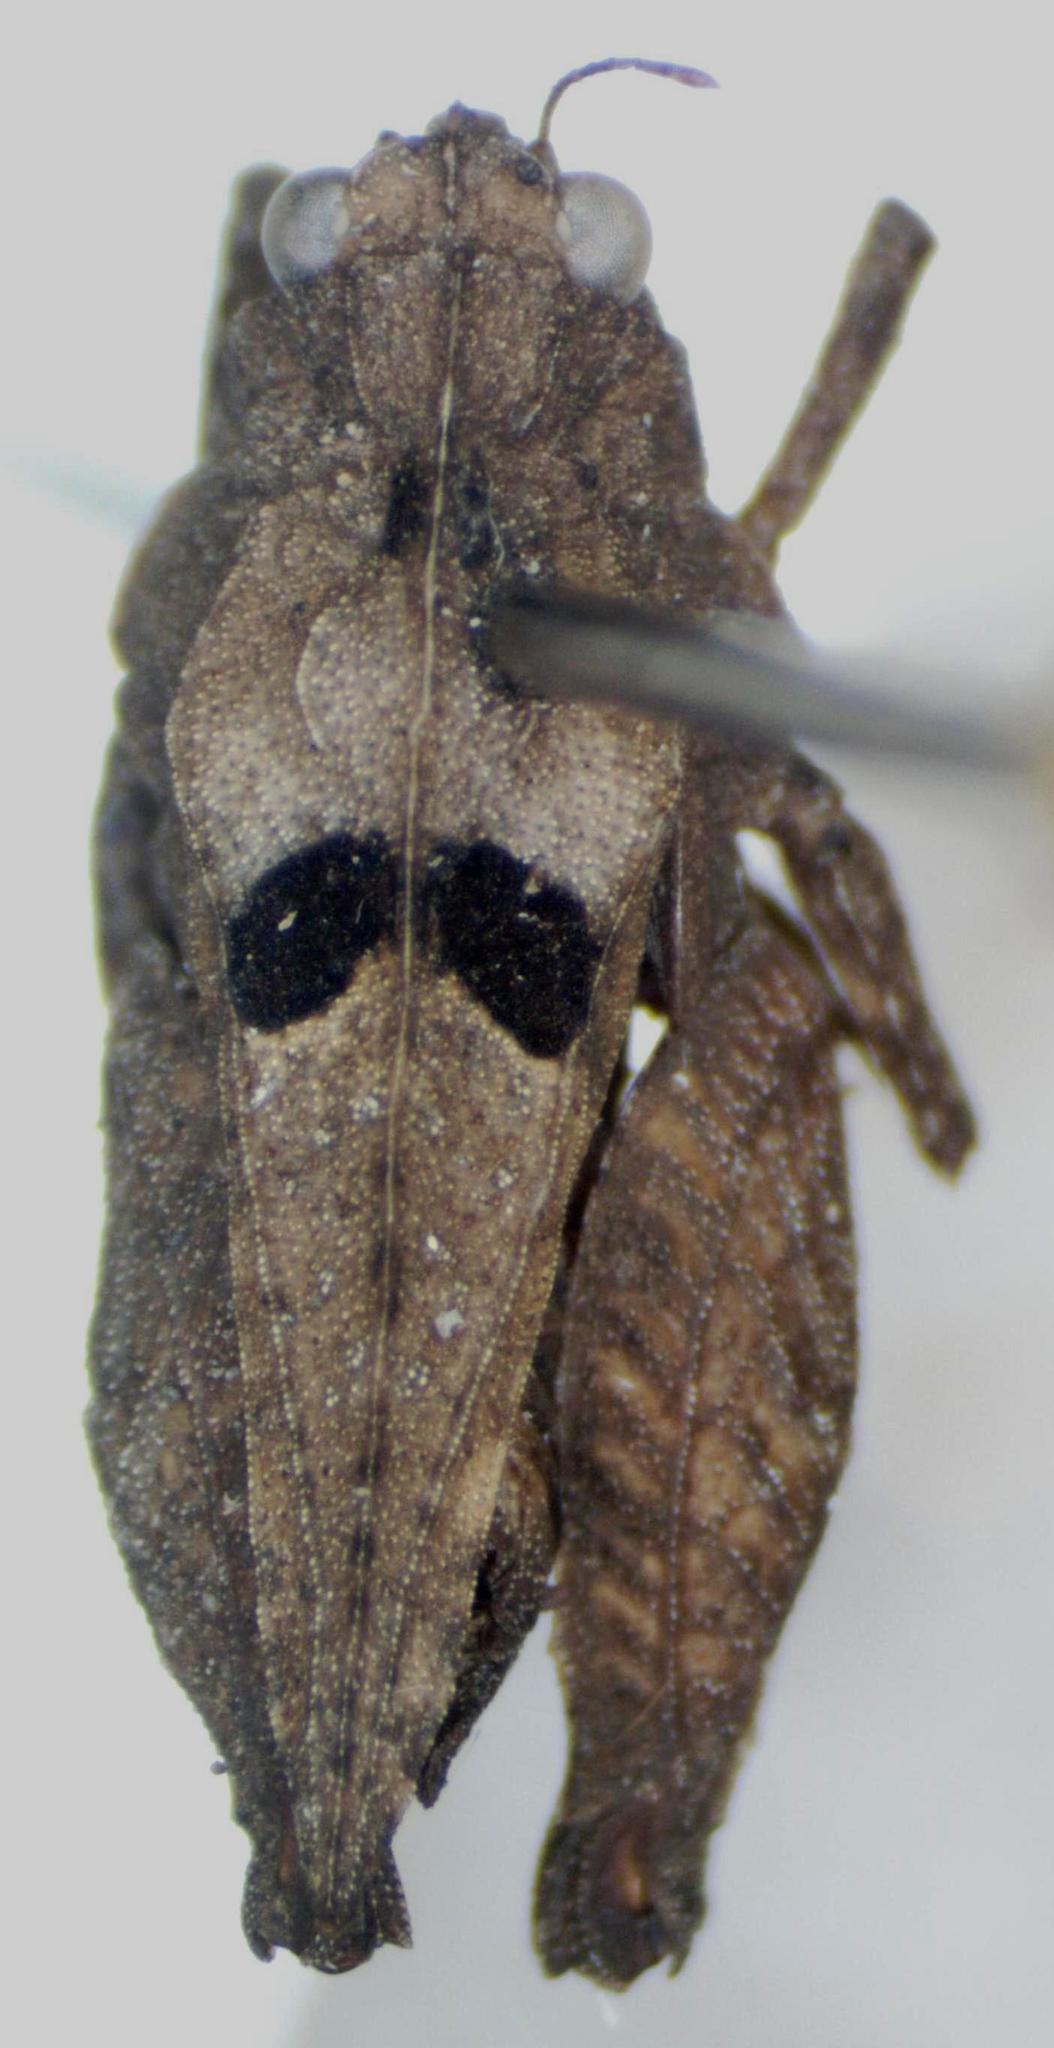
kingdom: Animalia
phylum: Arthropoda
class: Insecta
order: Orthoptera
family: Tetrigidae
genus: Ochetotettix
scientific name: Ochetotettix barretti
